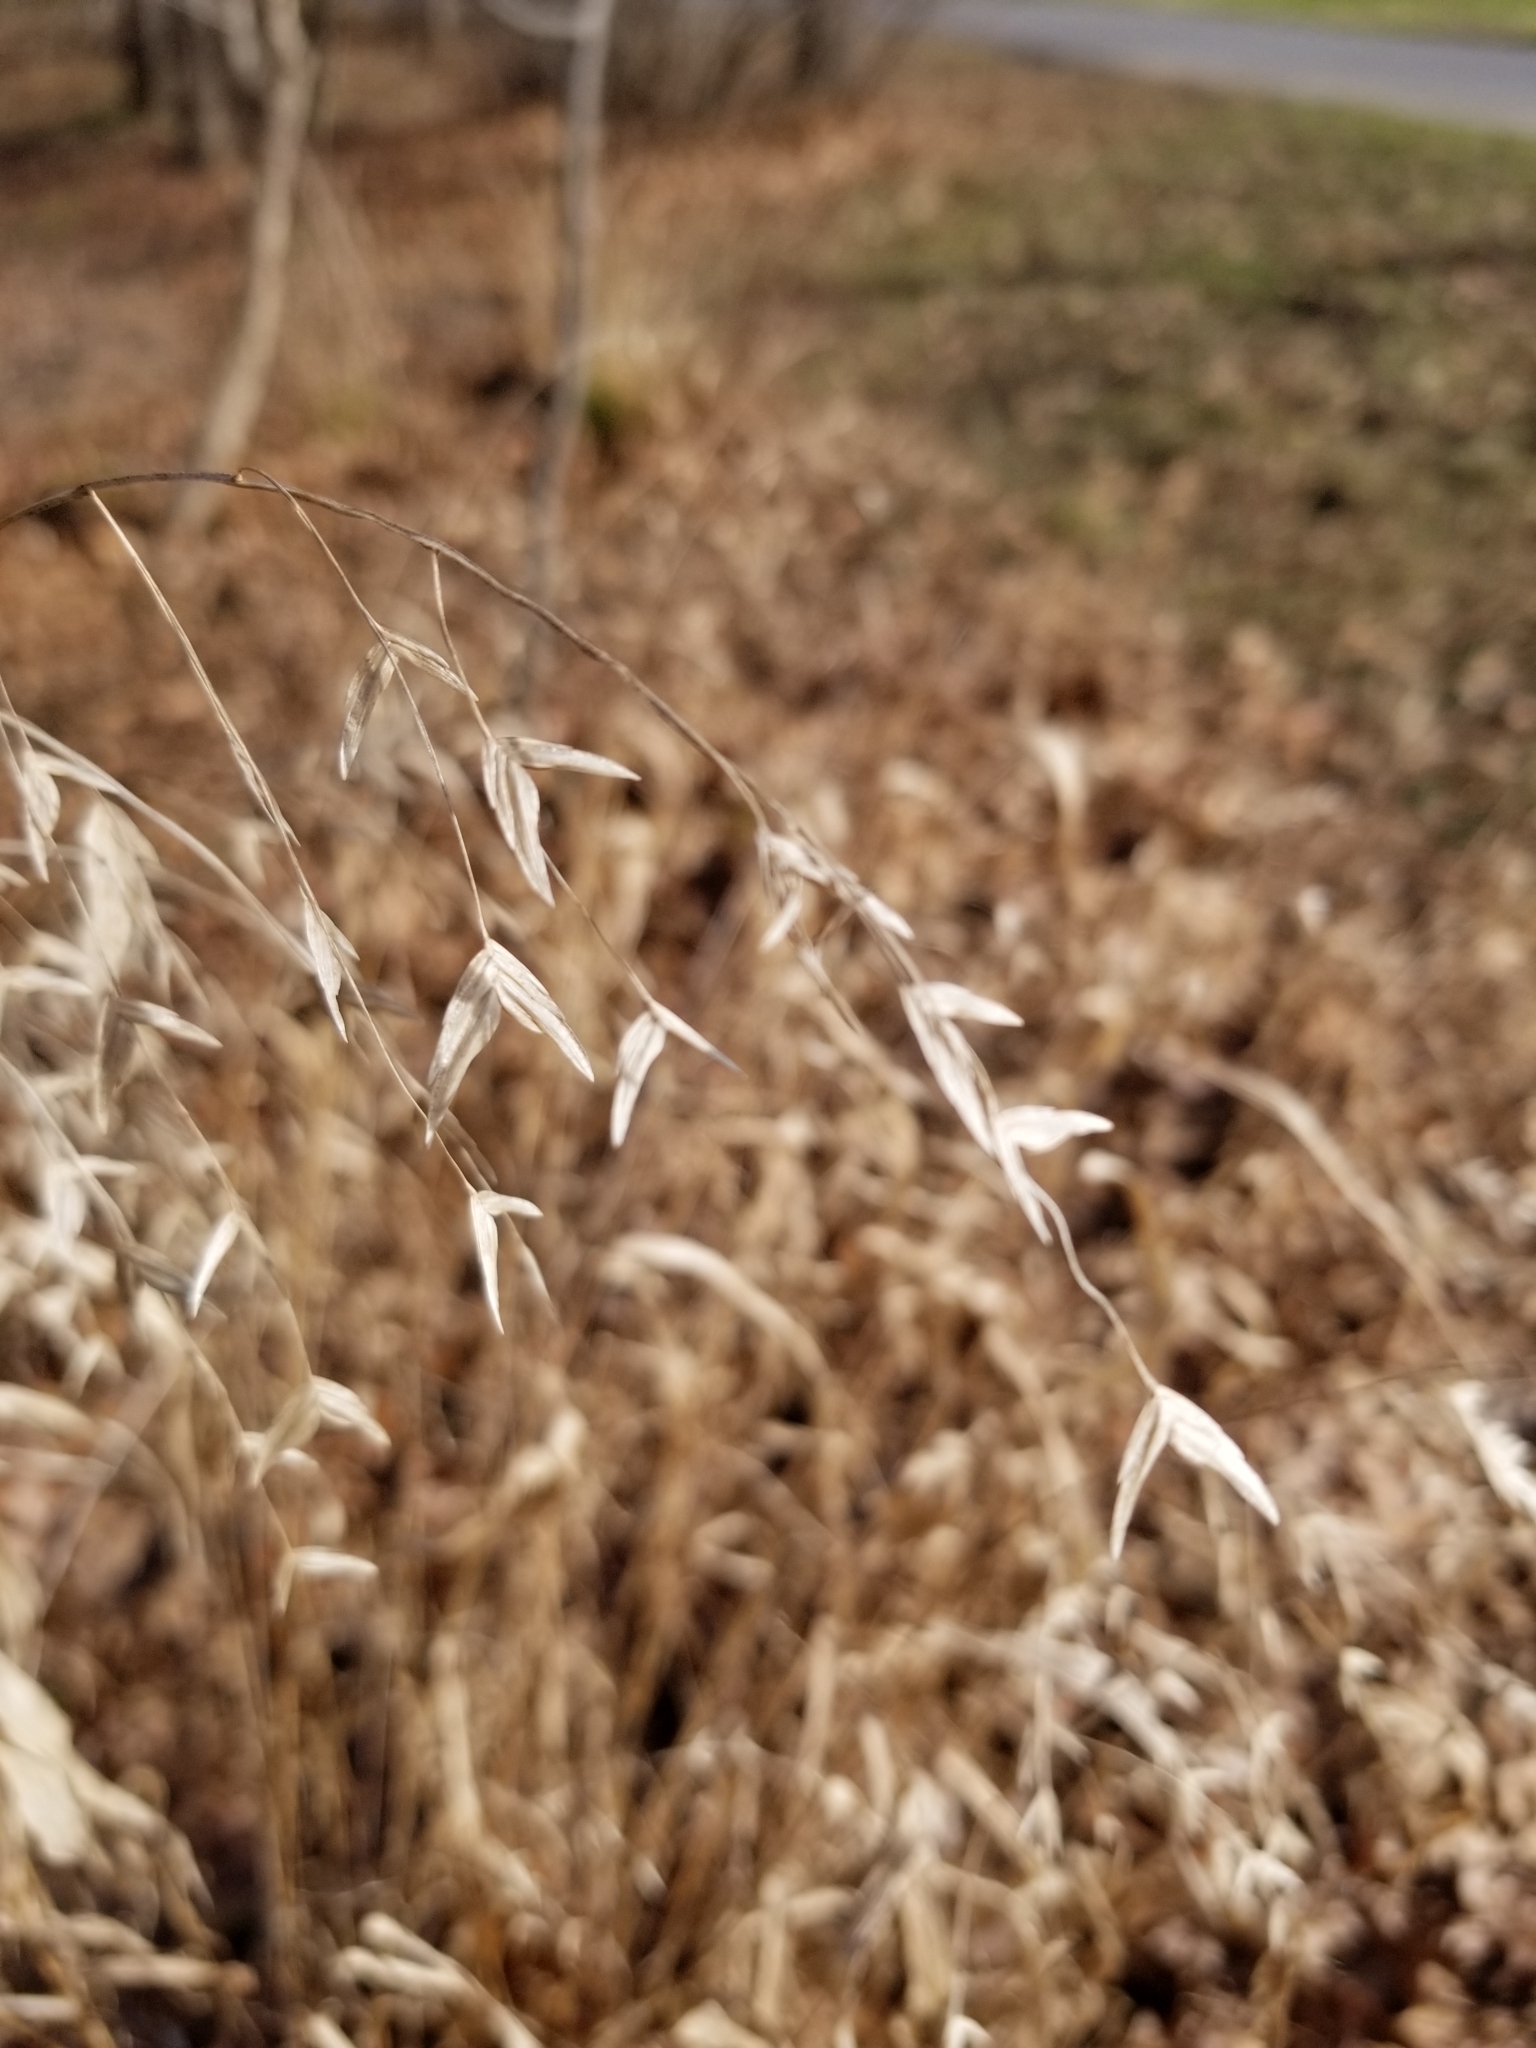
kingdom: Plantae
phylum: Tracheophyta
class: Liliopsida
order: Poales
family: Poaceae
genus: Chasmanthium
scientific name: Chasmanthium latifolium
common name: Broad-leaved chasmanthium
